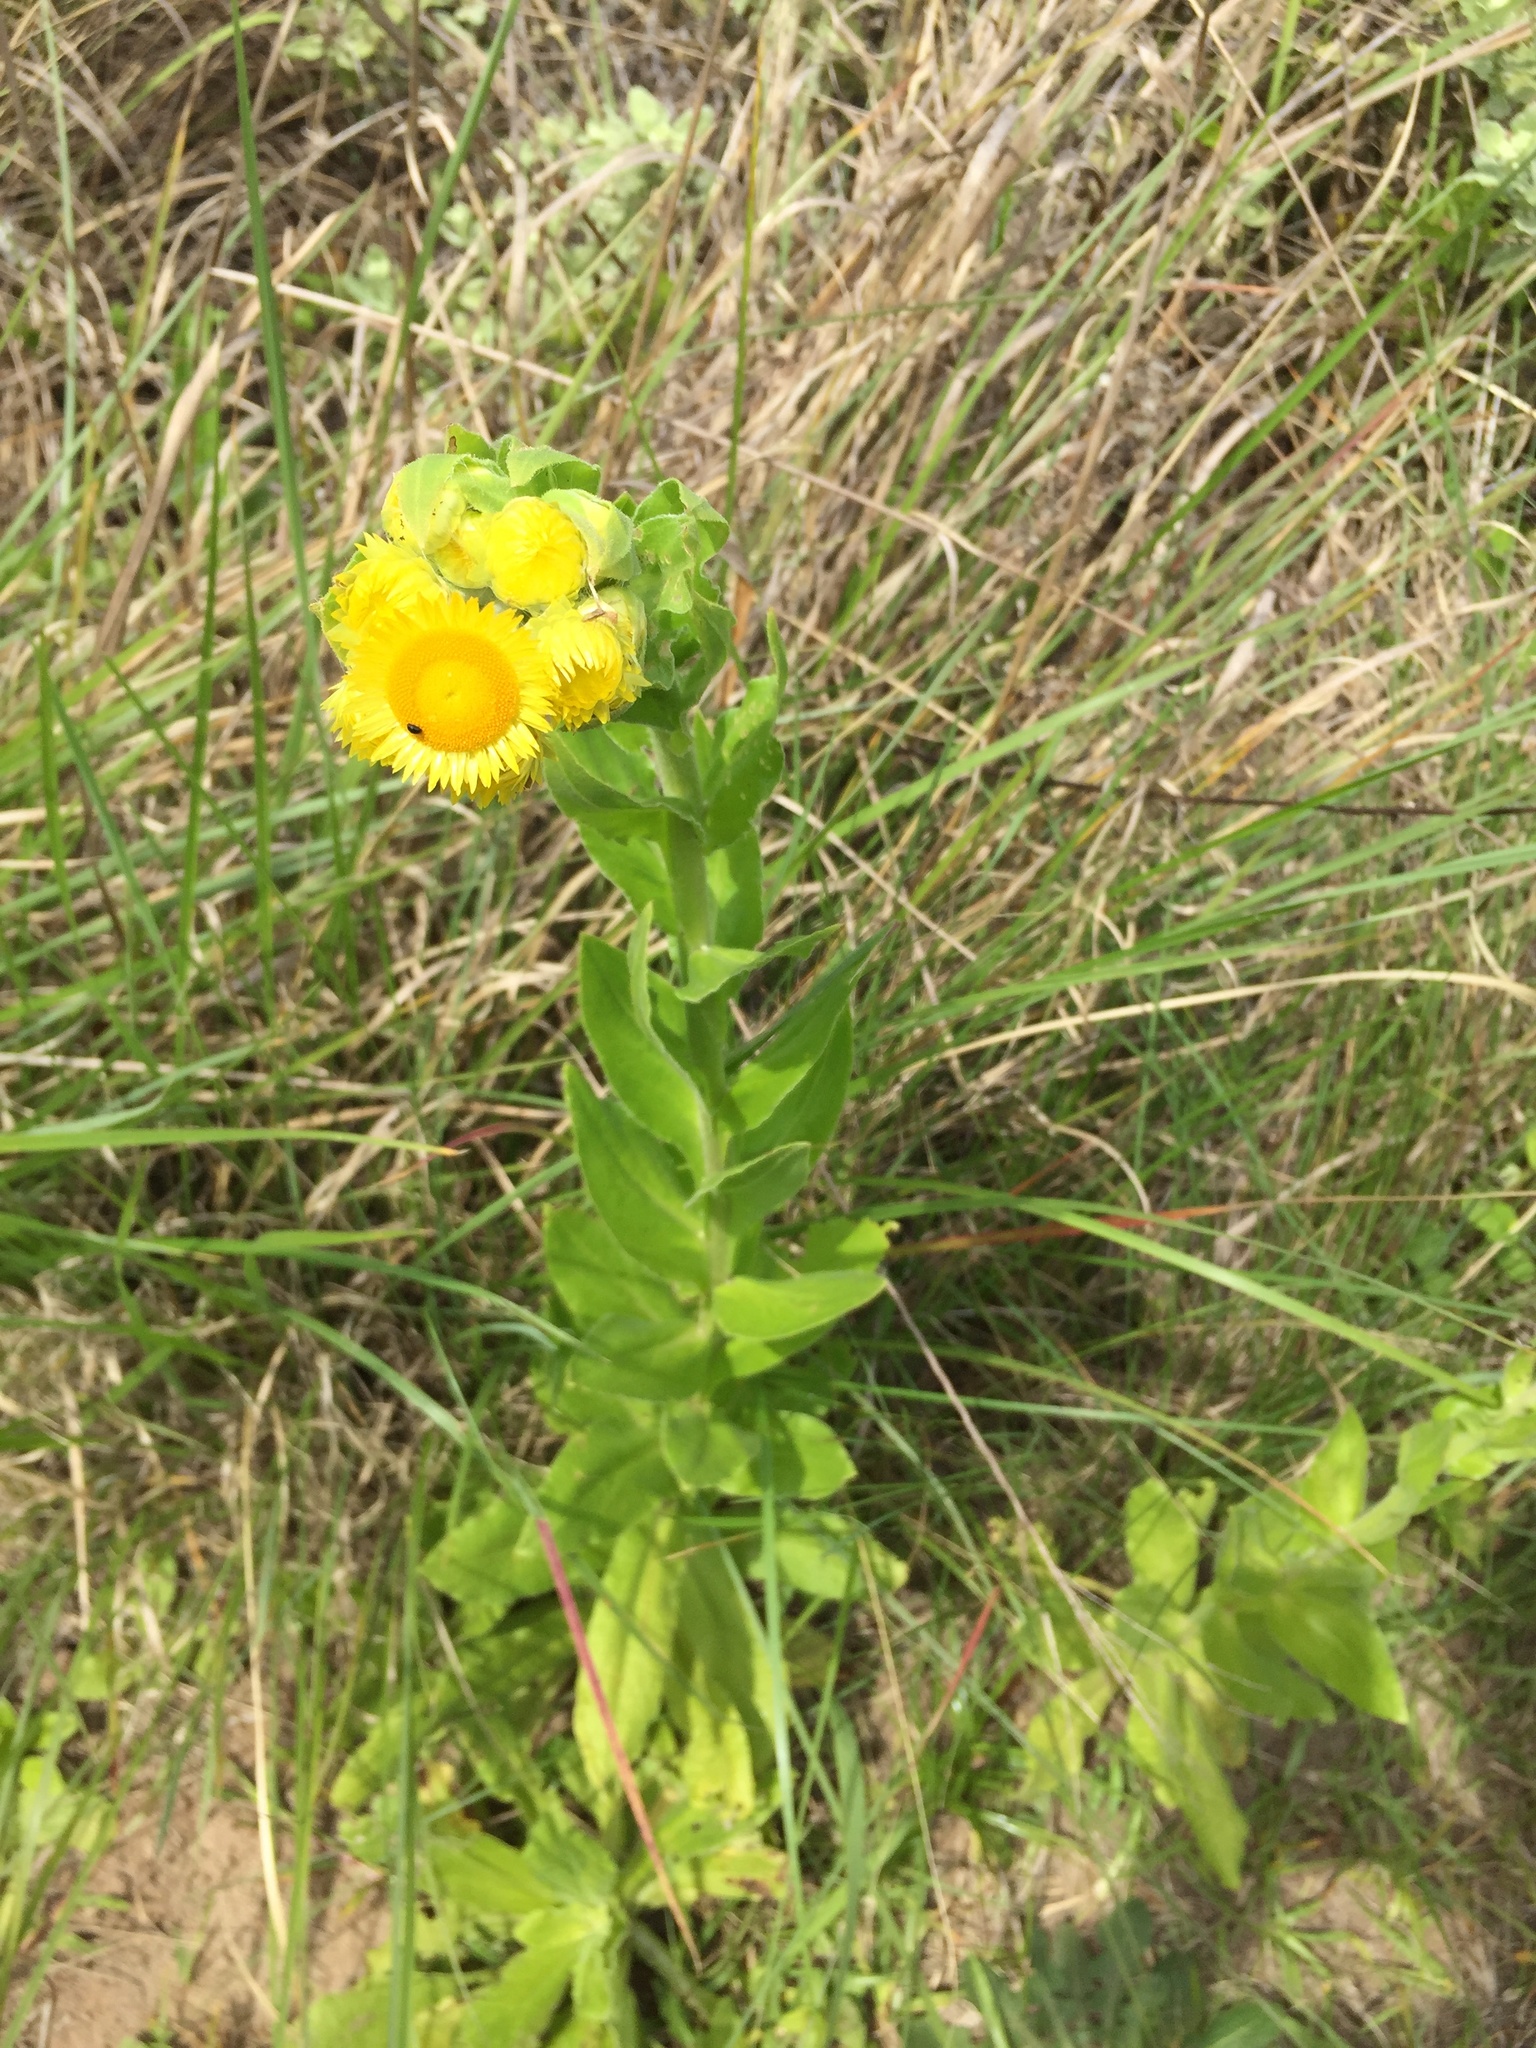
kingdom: Plantae
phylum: Tracheophyta
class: Magnoliopsida
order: Asterales
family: Asteraceae
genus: Helichrysum
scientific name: Helichrysum ruderale
